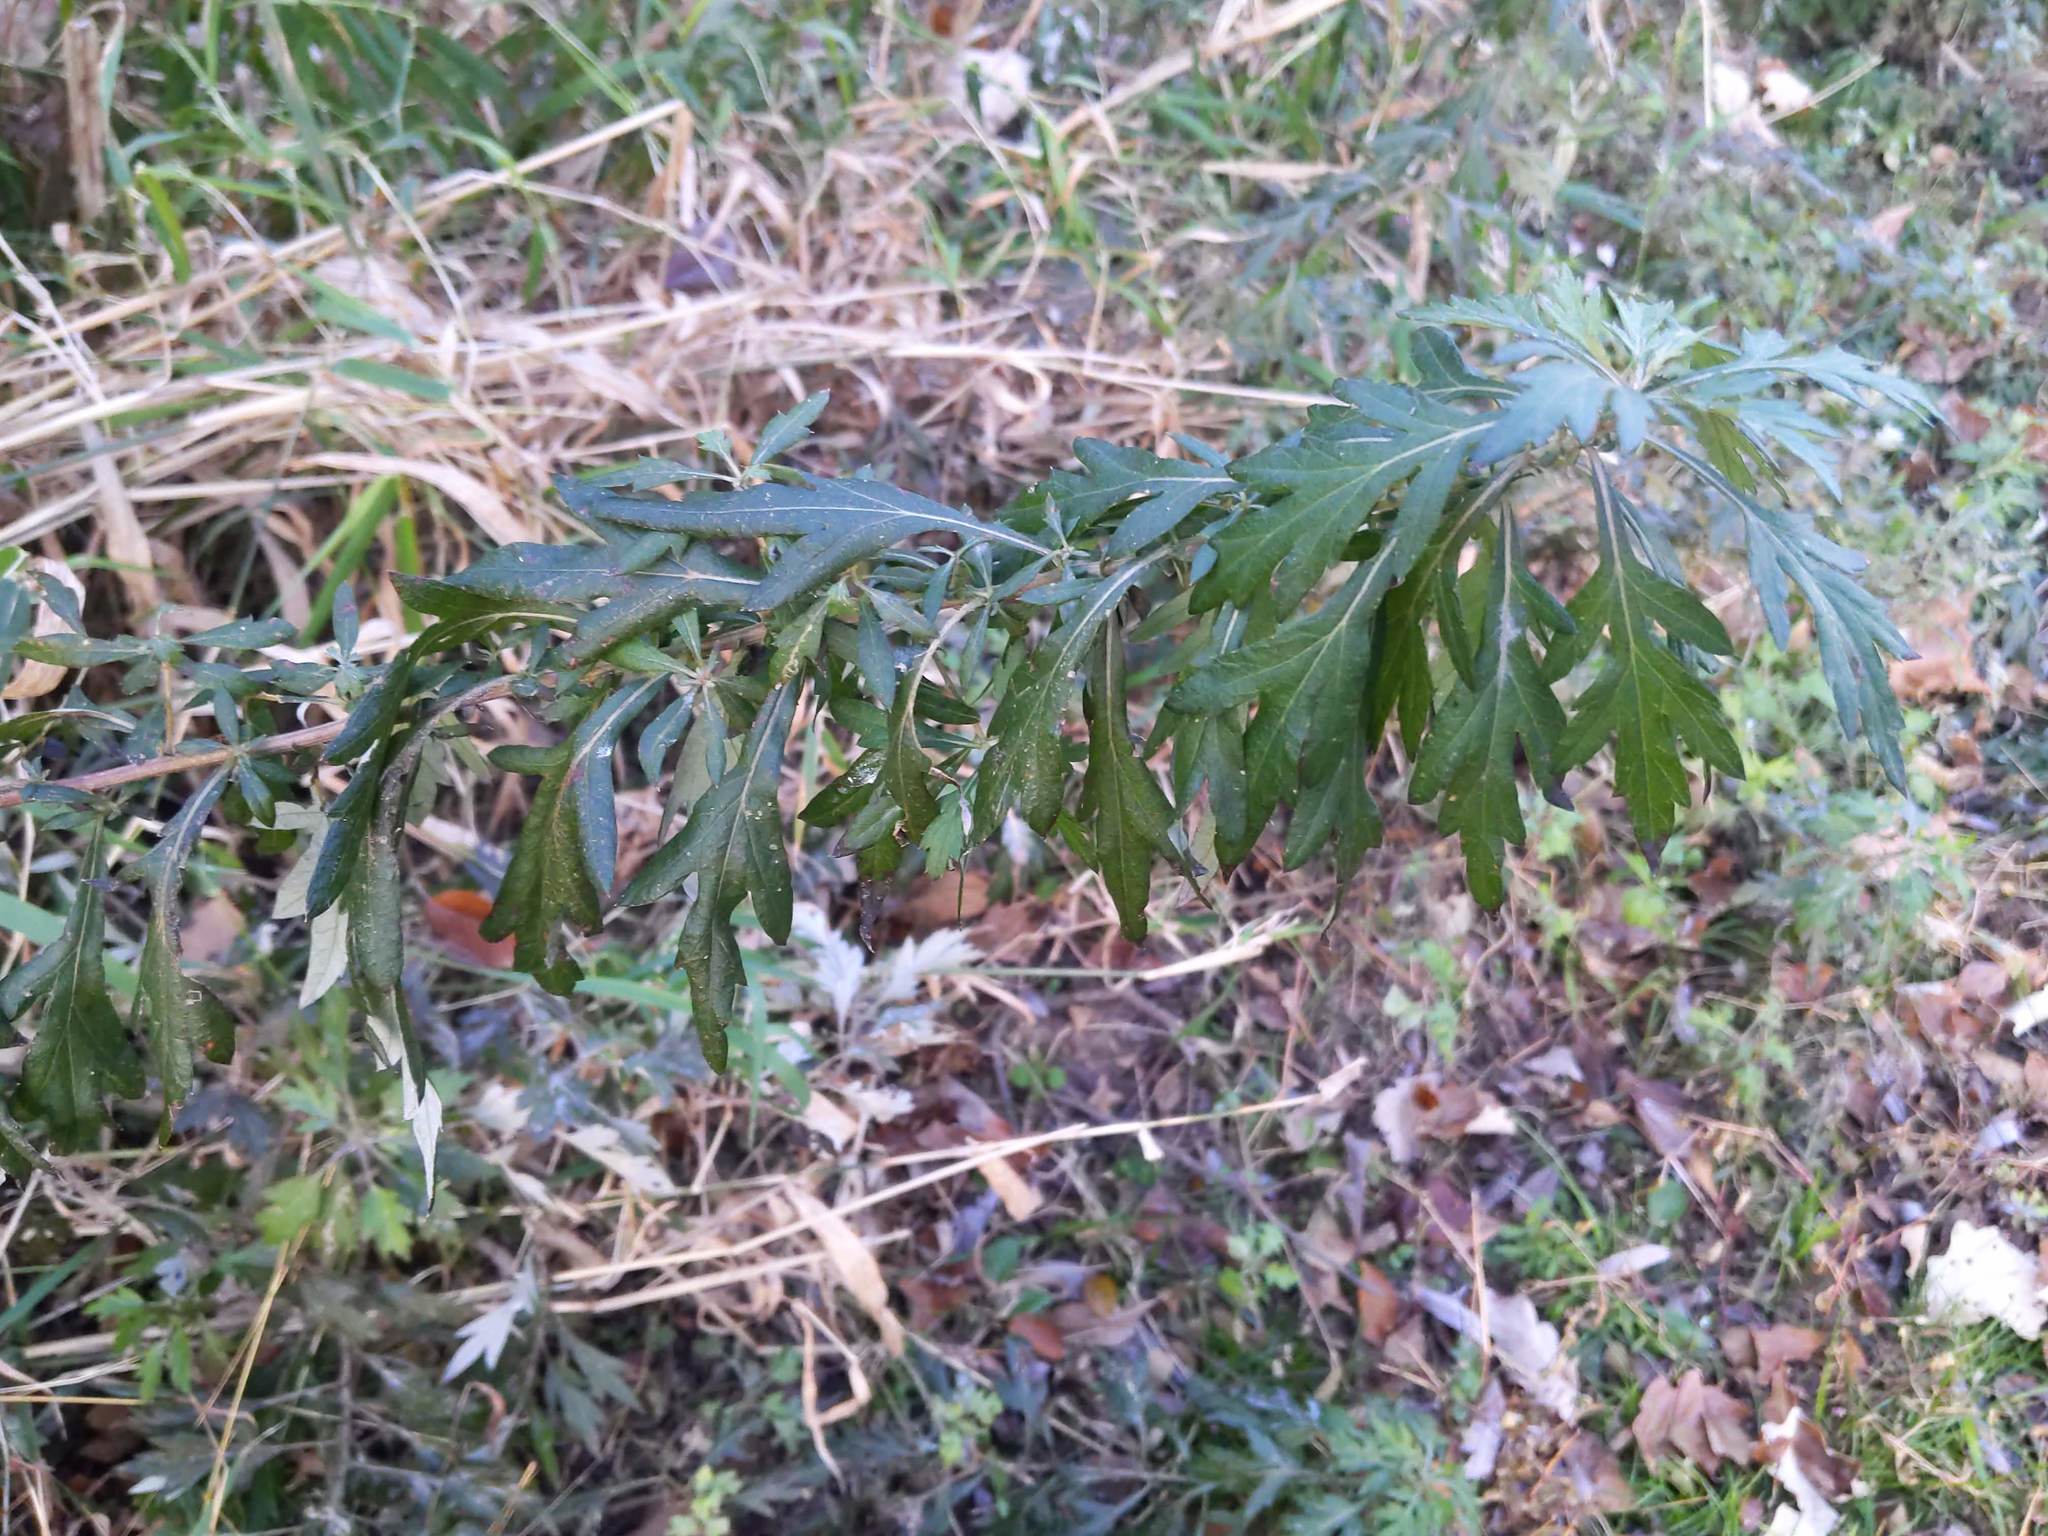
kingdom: Plantae
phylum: Tracheophyta
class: Magnoliopsida
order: Asterales
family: Asteraceae
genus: Artemisia
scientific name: Artemisia vulgaris
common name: Mugwort
